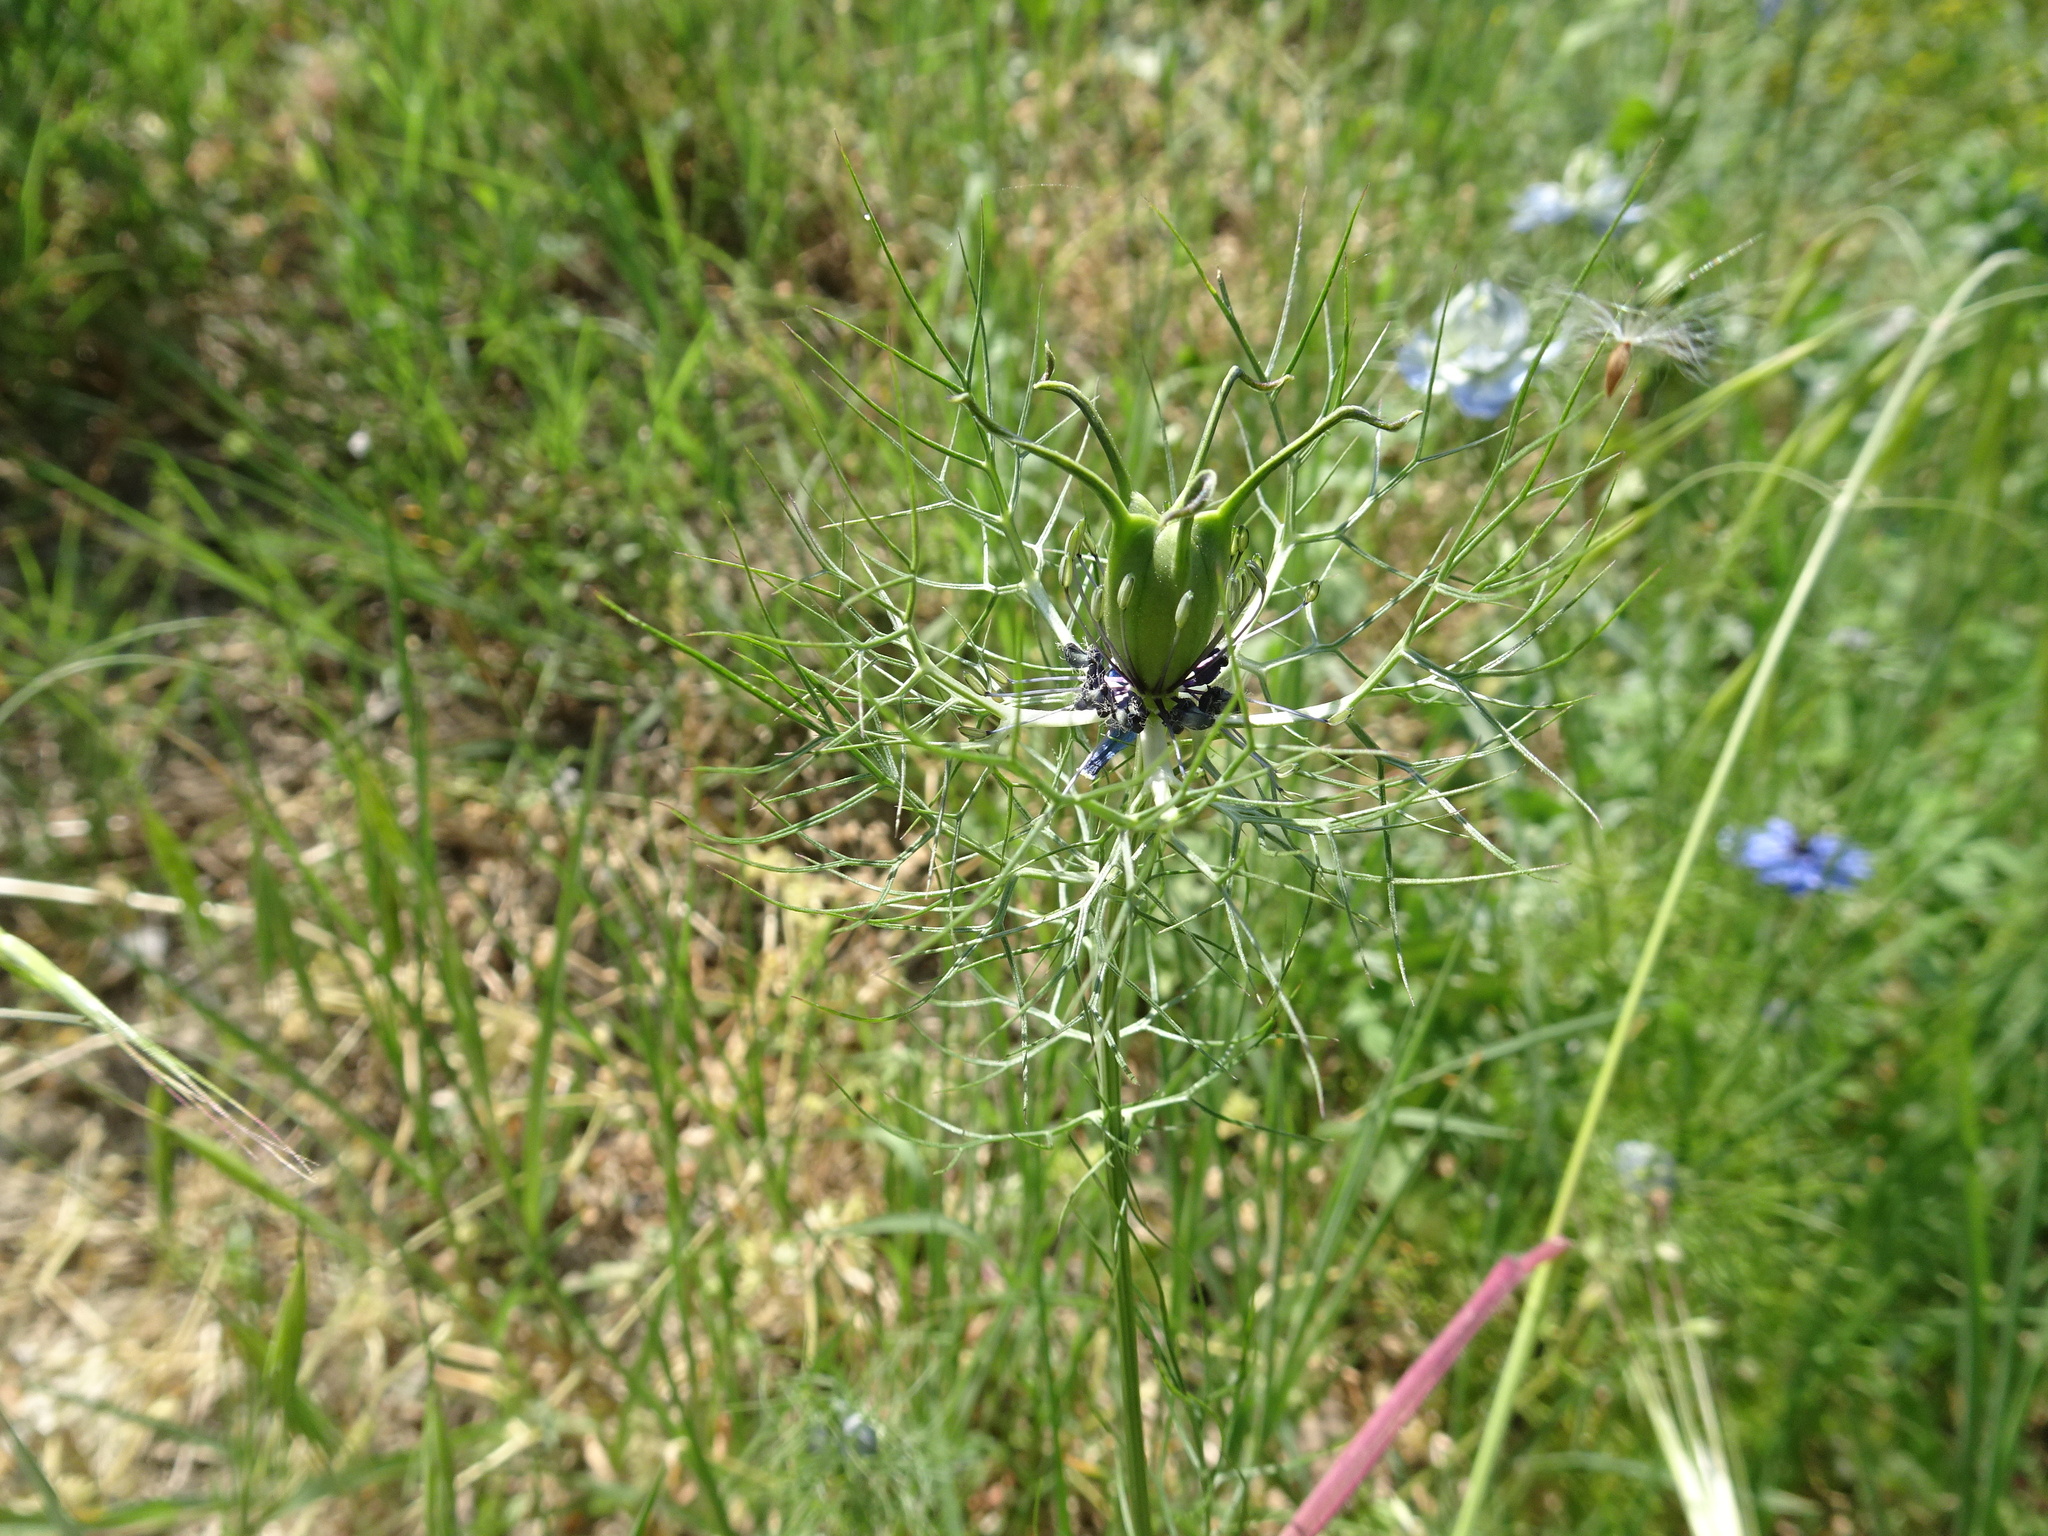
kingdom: Plantae
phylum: Tracheophyta
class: Magnoliopsida
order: Ranunculales
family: Ranunculaceae
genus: Nigella
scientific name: Nigella damascena
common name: Love-in-a-mist
